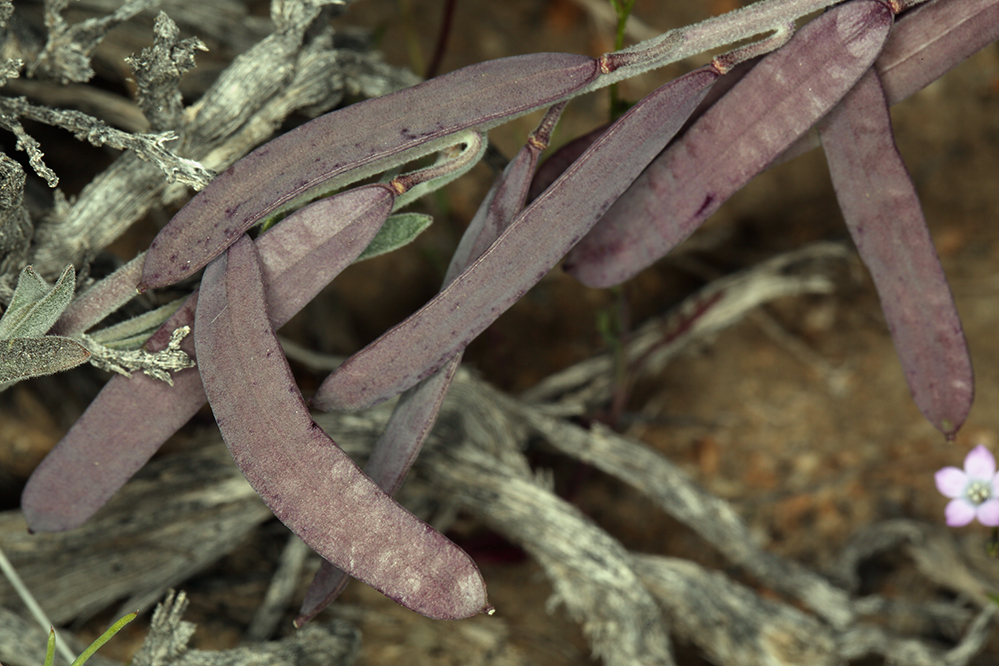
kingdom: Plantae
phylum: Tracheophyta
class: Magnoliopsida
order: Brassicales
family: Brassicaceae
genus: Boechera
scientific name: Boechera glaucovalvula
